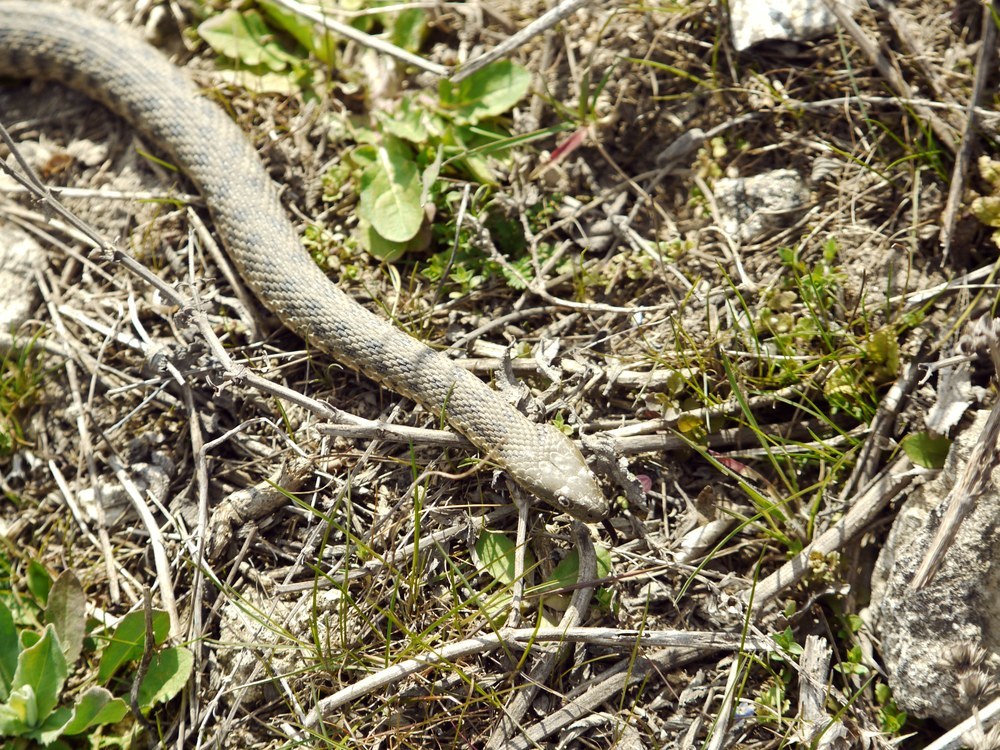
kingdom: Animalia
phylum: Chordata
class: Squamata
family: Colubridae
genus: Natrix
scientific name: Natrix tessellata
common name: Dice snake
